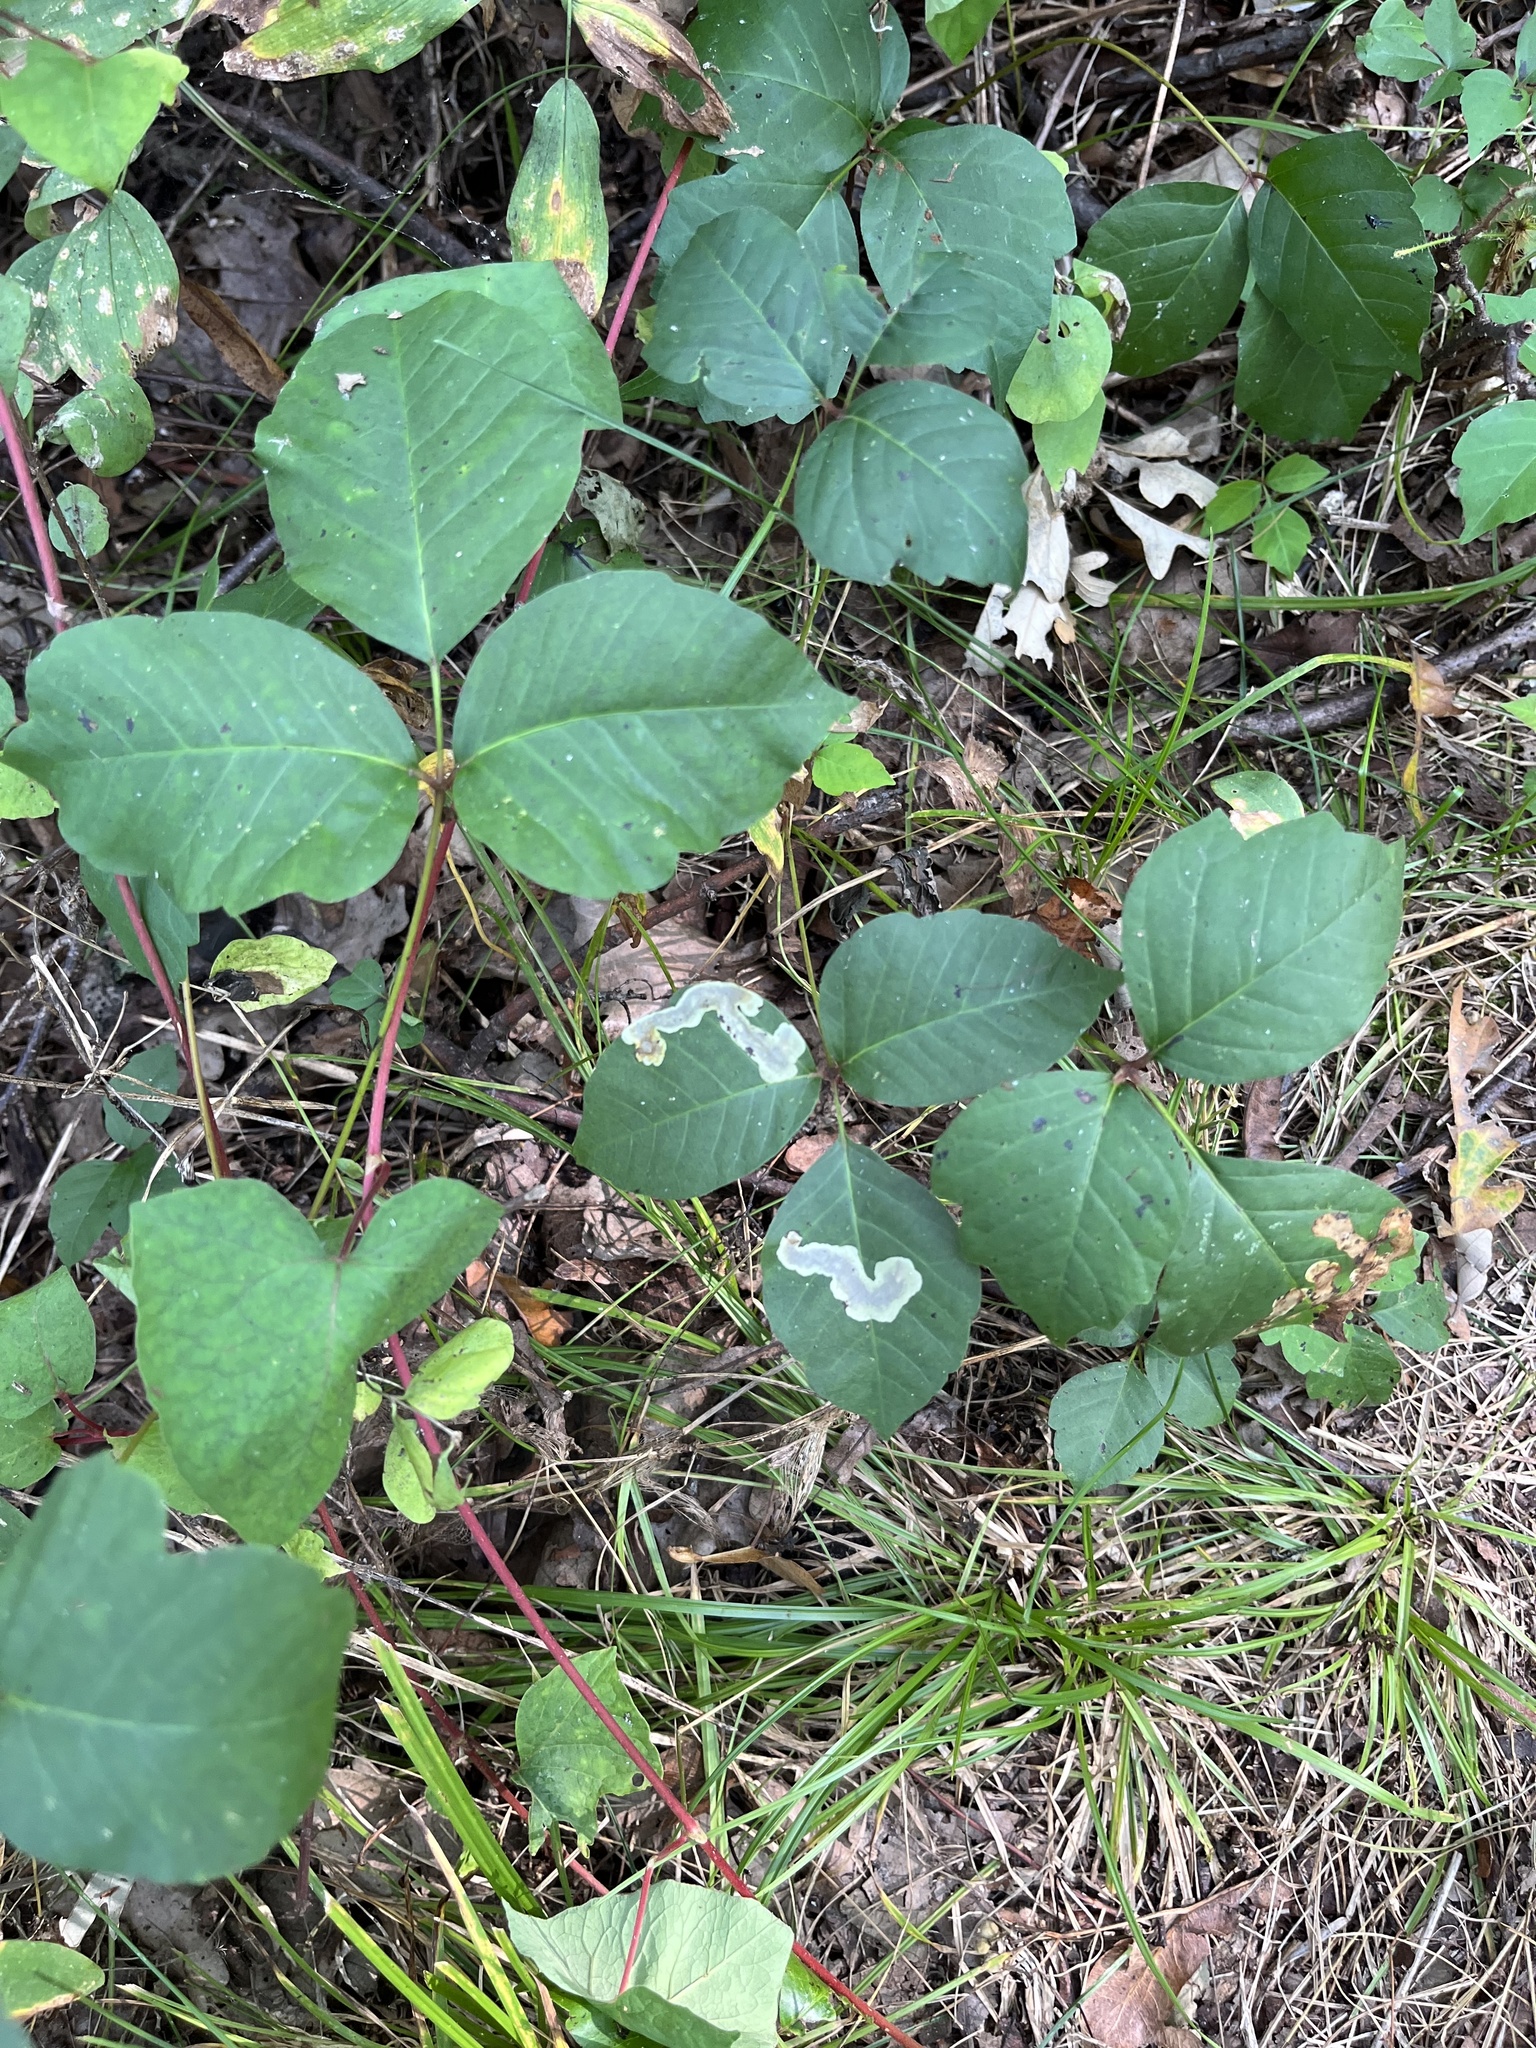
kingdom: Plantae
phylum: Tracheophyta
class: Magnoliopsida
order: Sapindales
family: Anacardiaceae
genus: Toxicodendron
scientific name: Toxicodendron rydbergii
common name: Rydberg's poison-ivy
